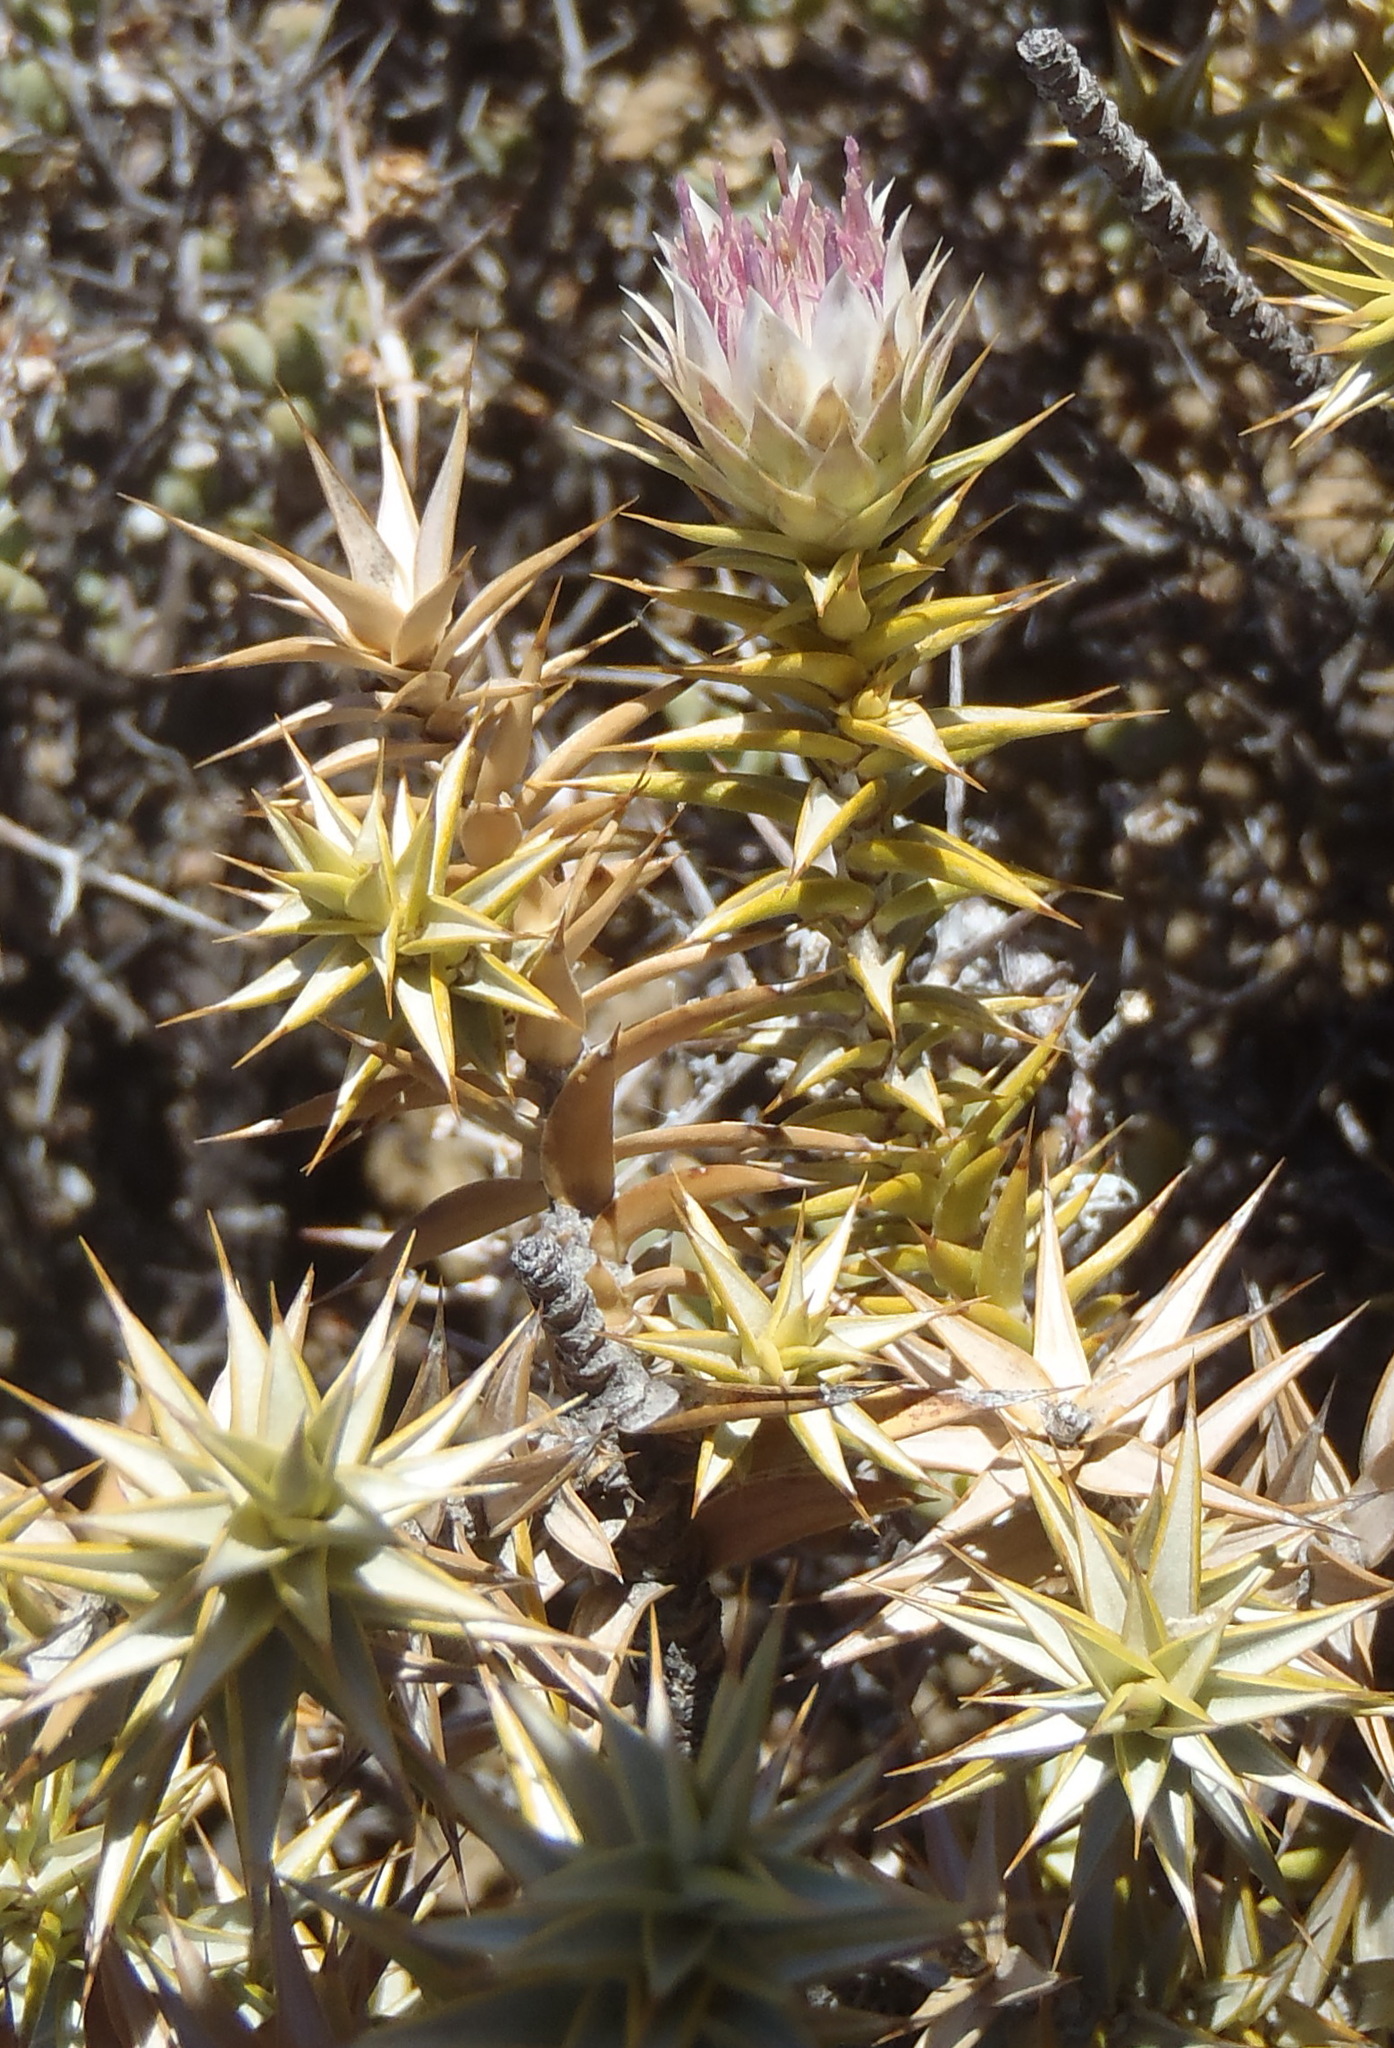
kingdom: Plantae
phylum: Tracheophyta
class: Magnoliopsida
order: Asterales
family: Asteraceae
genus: Macledium
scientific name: Macledium relhanioides
